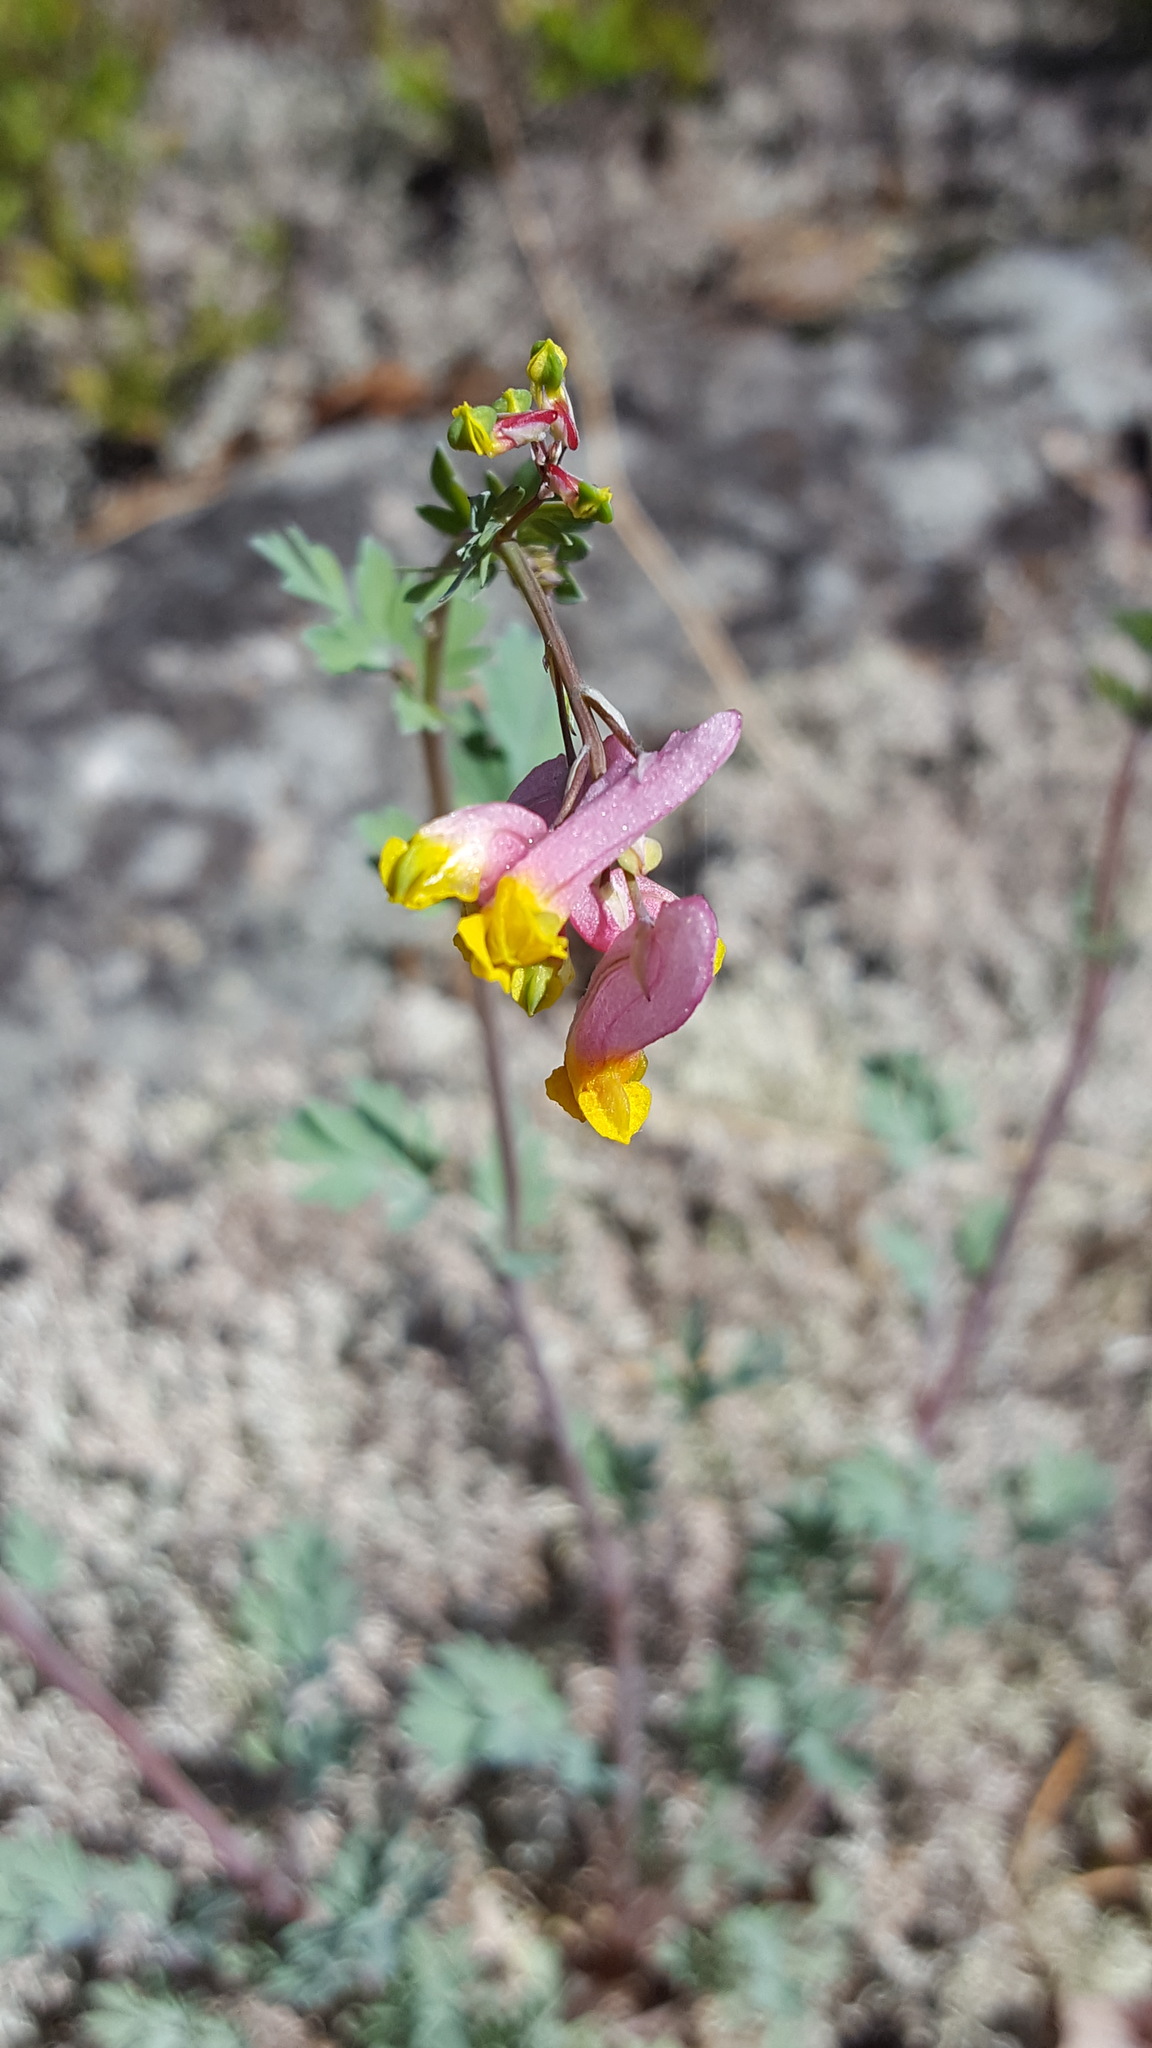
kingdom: Plantae
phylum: Tracheophyta
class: Magnoliopsida
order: Ranunculales
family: Papaveraceae
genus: Capnoides
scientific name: Capnoides sempervirens
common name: Rock harlequin
